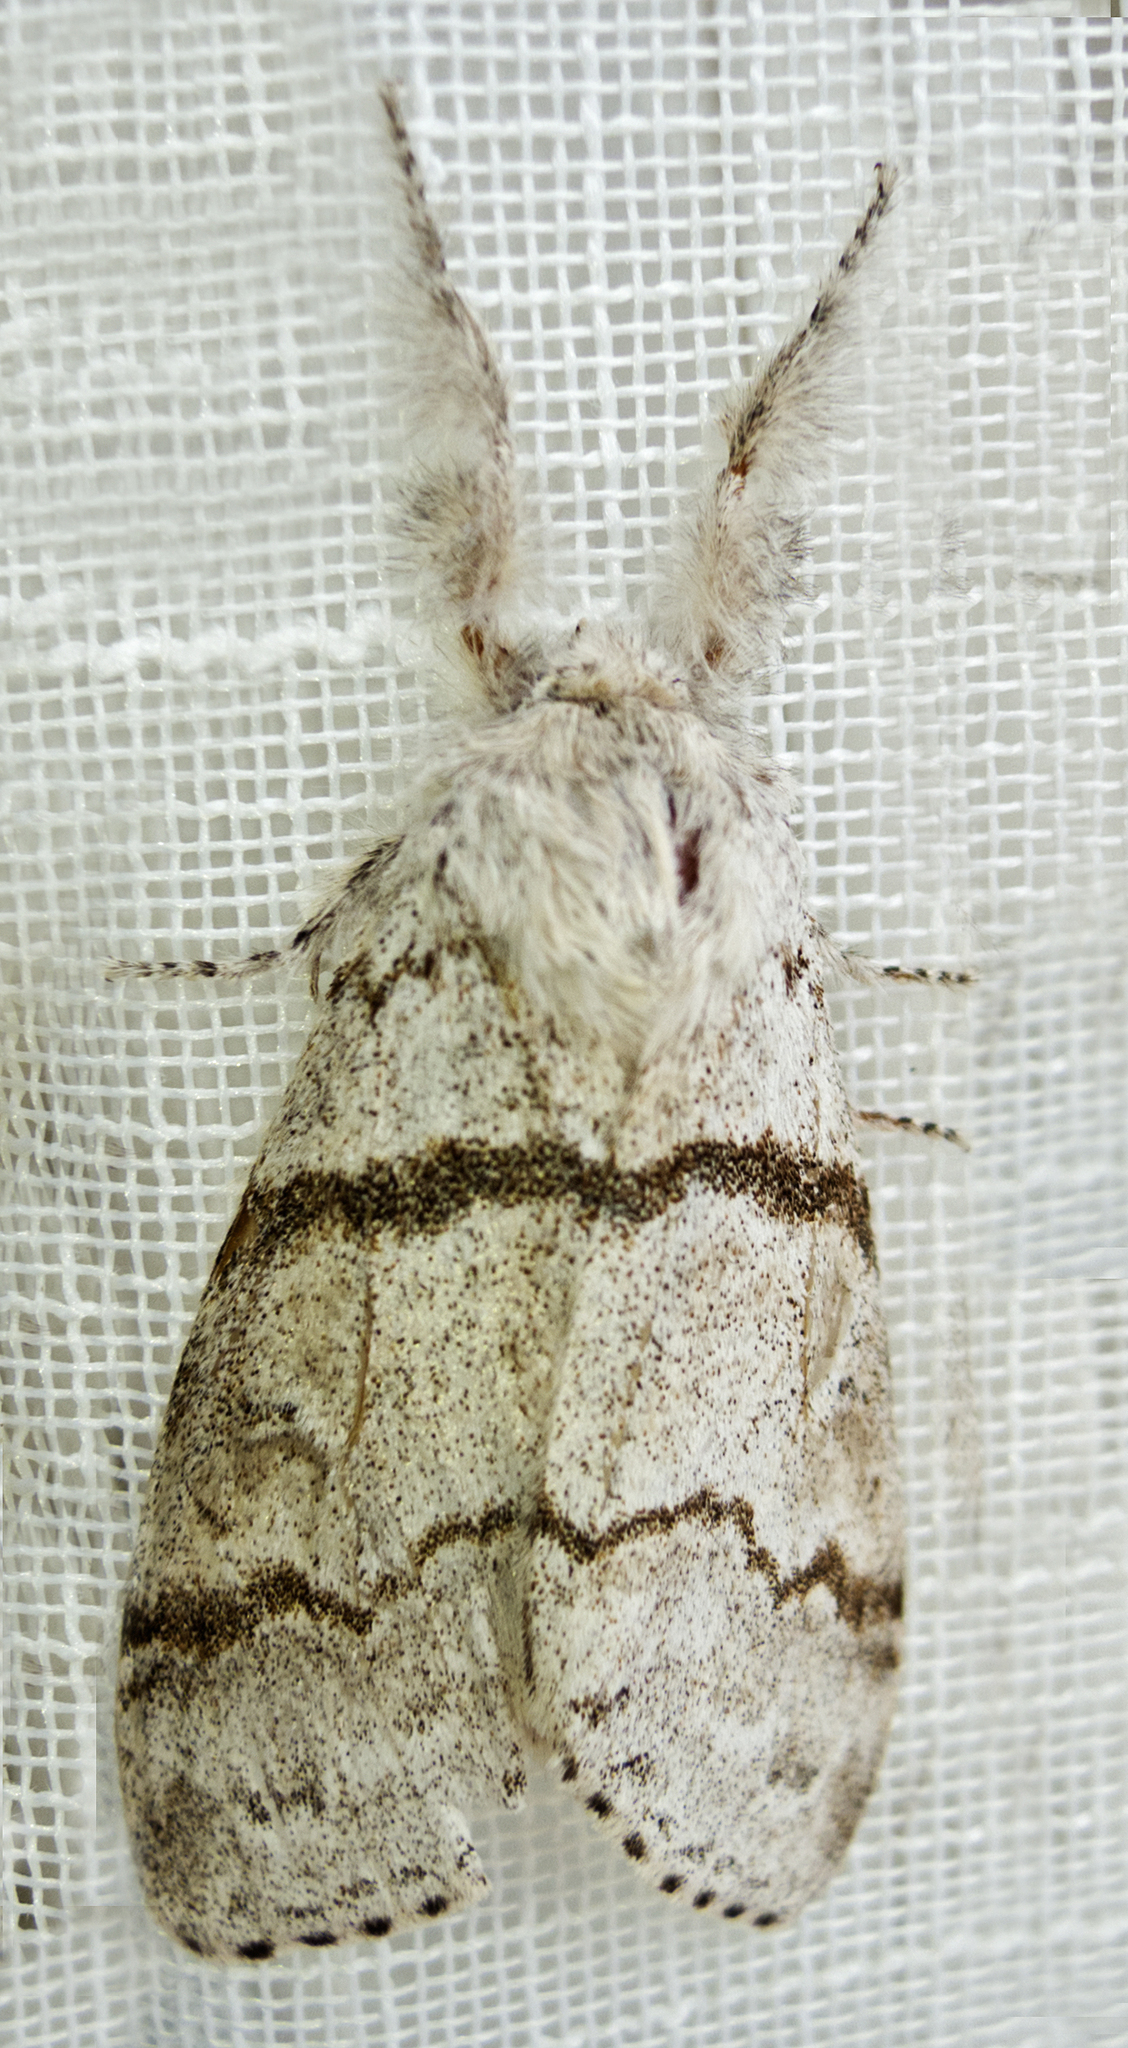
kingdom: Animalia
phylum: Arthropoda
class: Insecta
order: Lepidoptera
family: Erebidae
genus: Calliteara
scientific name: Calliteara pudibunda
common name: Pale tussock
